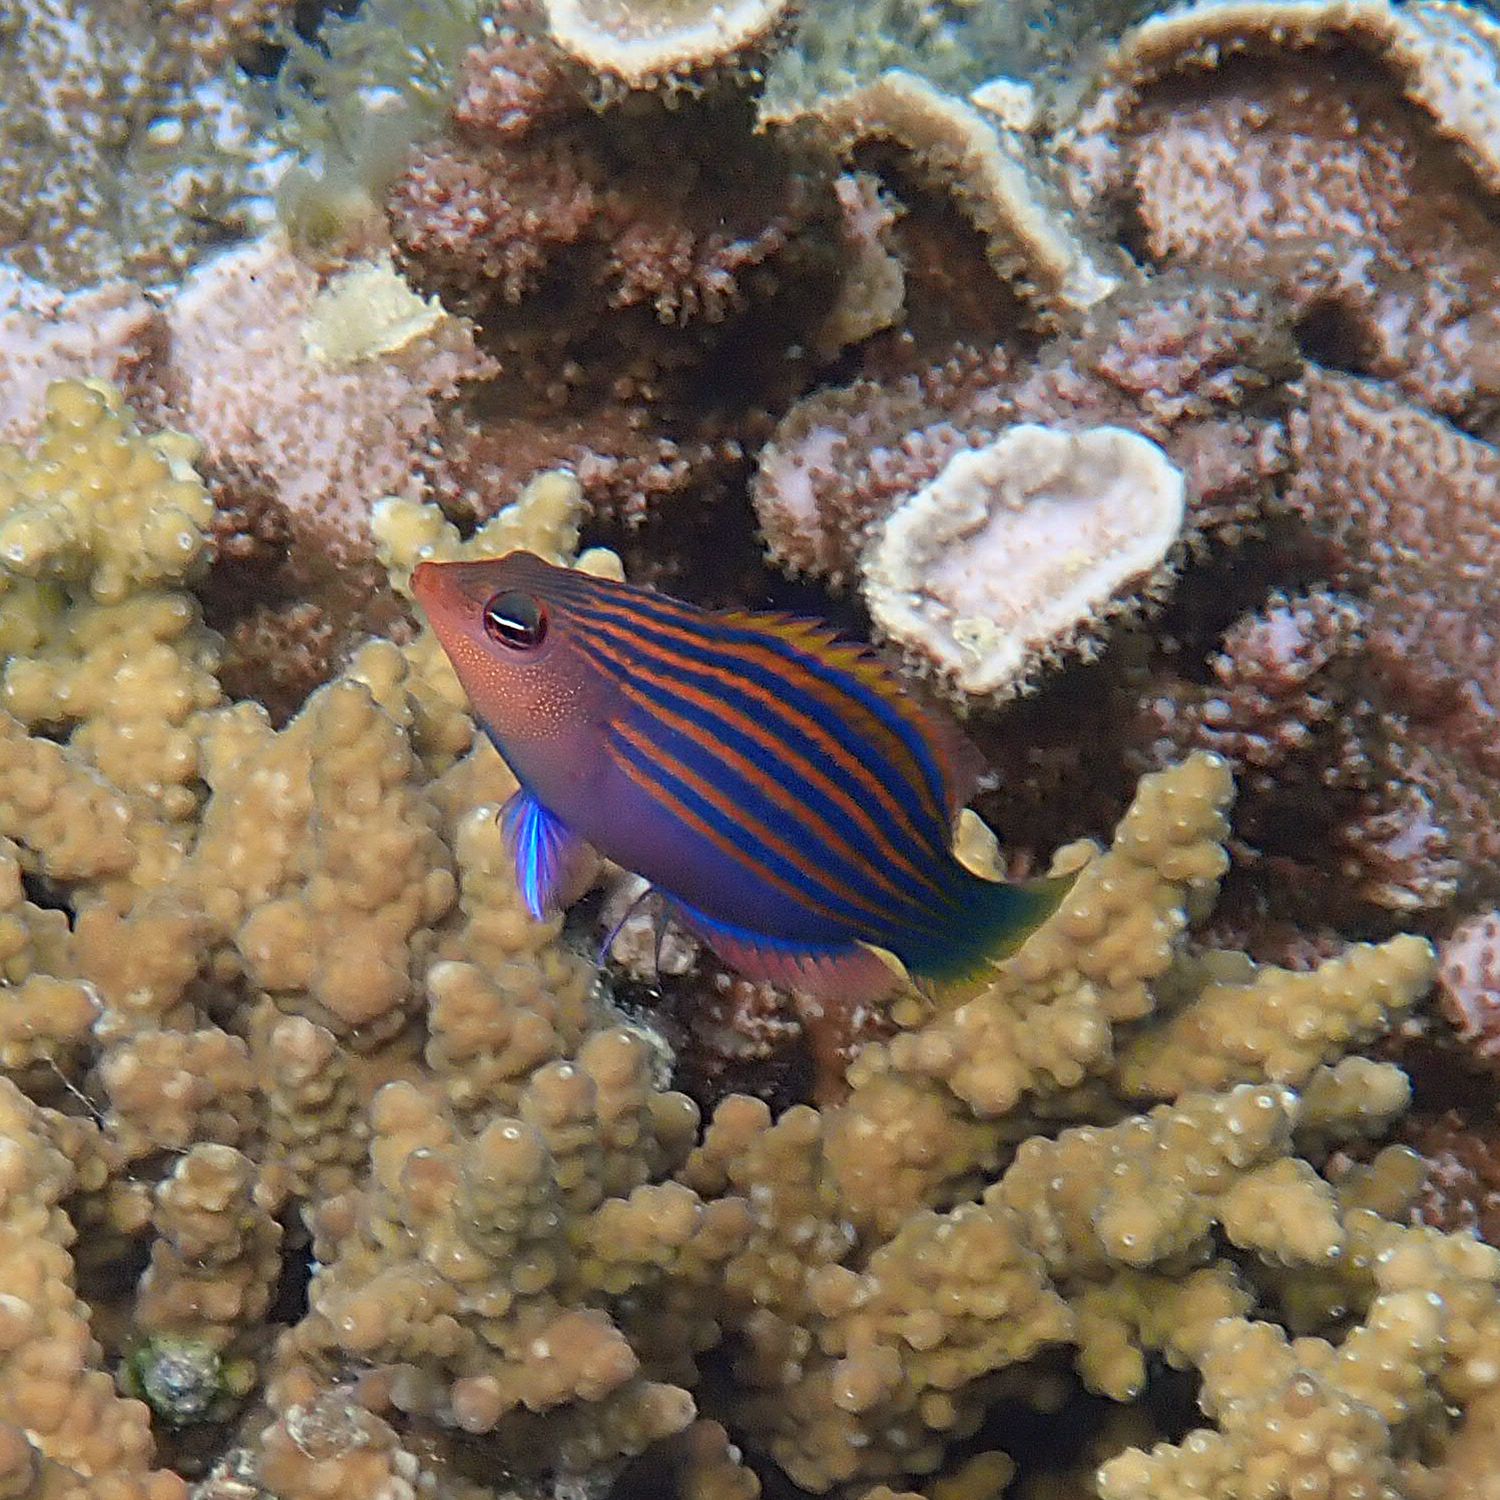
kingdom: Animalia
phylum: Chordata
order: Perciformes
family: Labridae
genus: Pseudocheilinus
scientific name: Pseudocheilinus hexataenia
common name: Sixline wrasse
